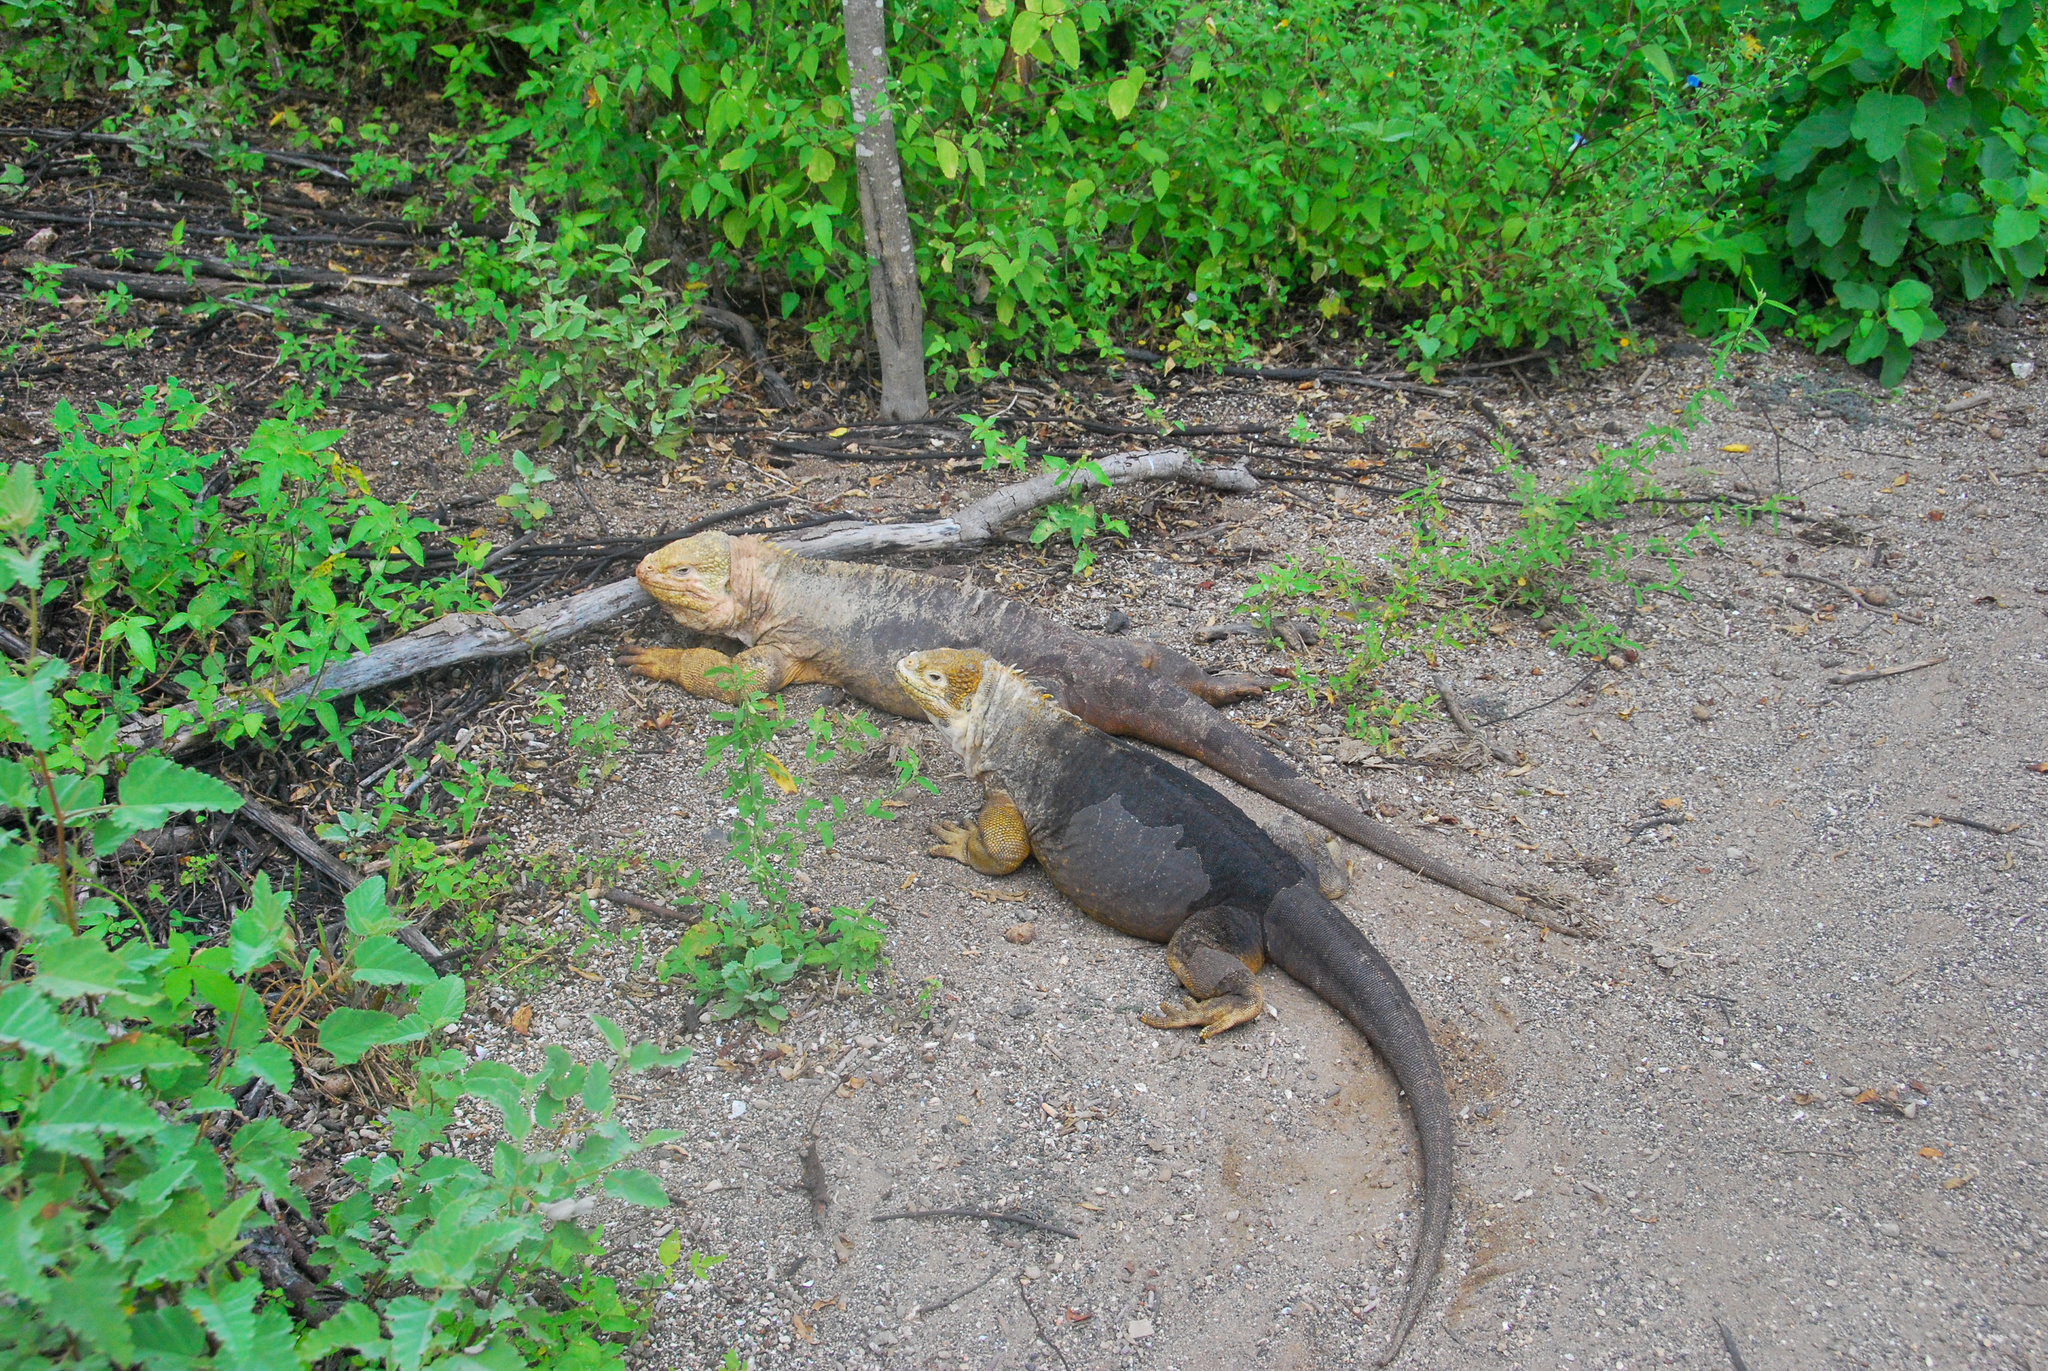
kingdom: Animalia
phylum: Chordata
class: Squamata
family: Iguanidae
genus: Conolophus
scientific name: Conolophus subcristatus
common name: Galapagos land iguana
